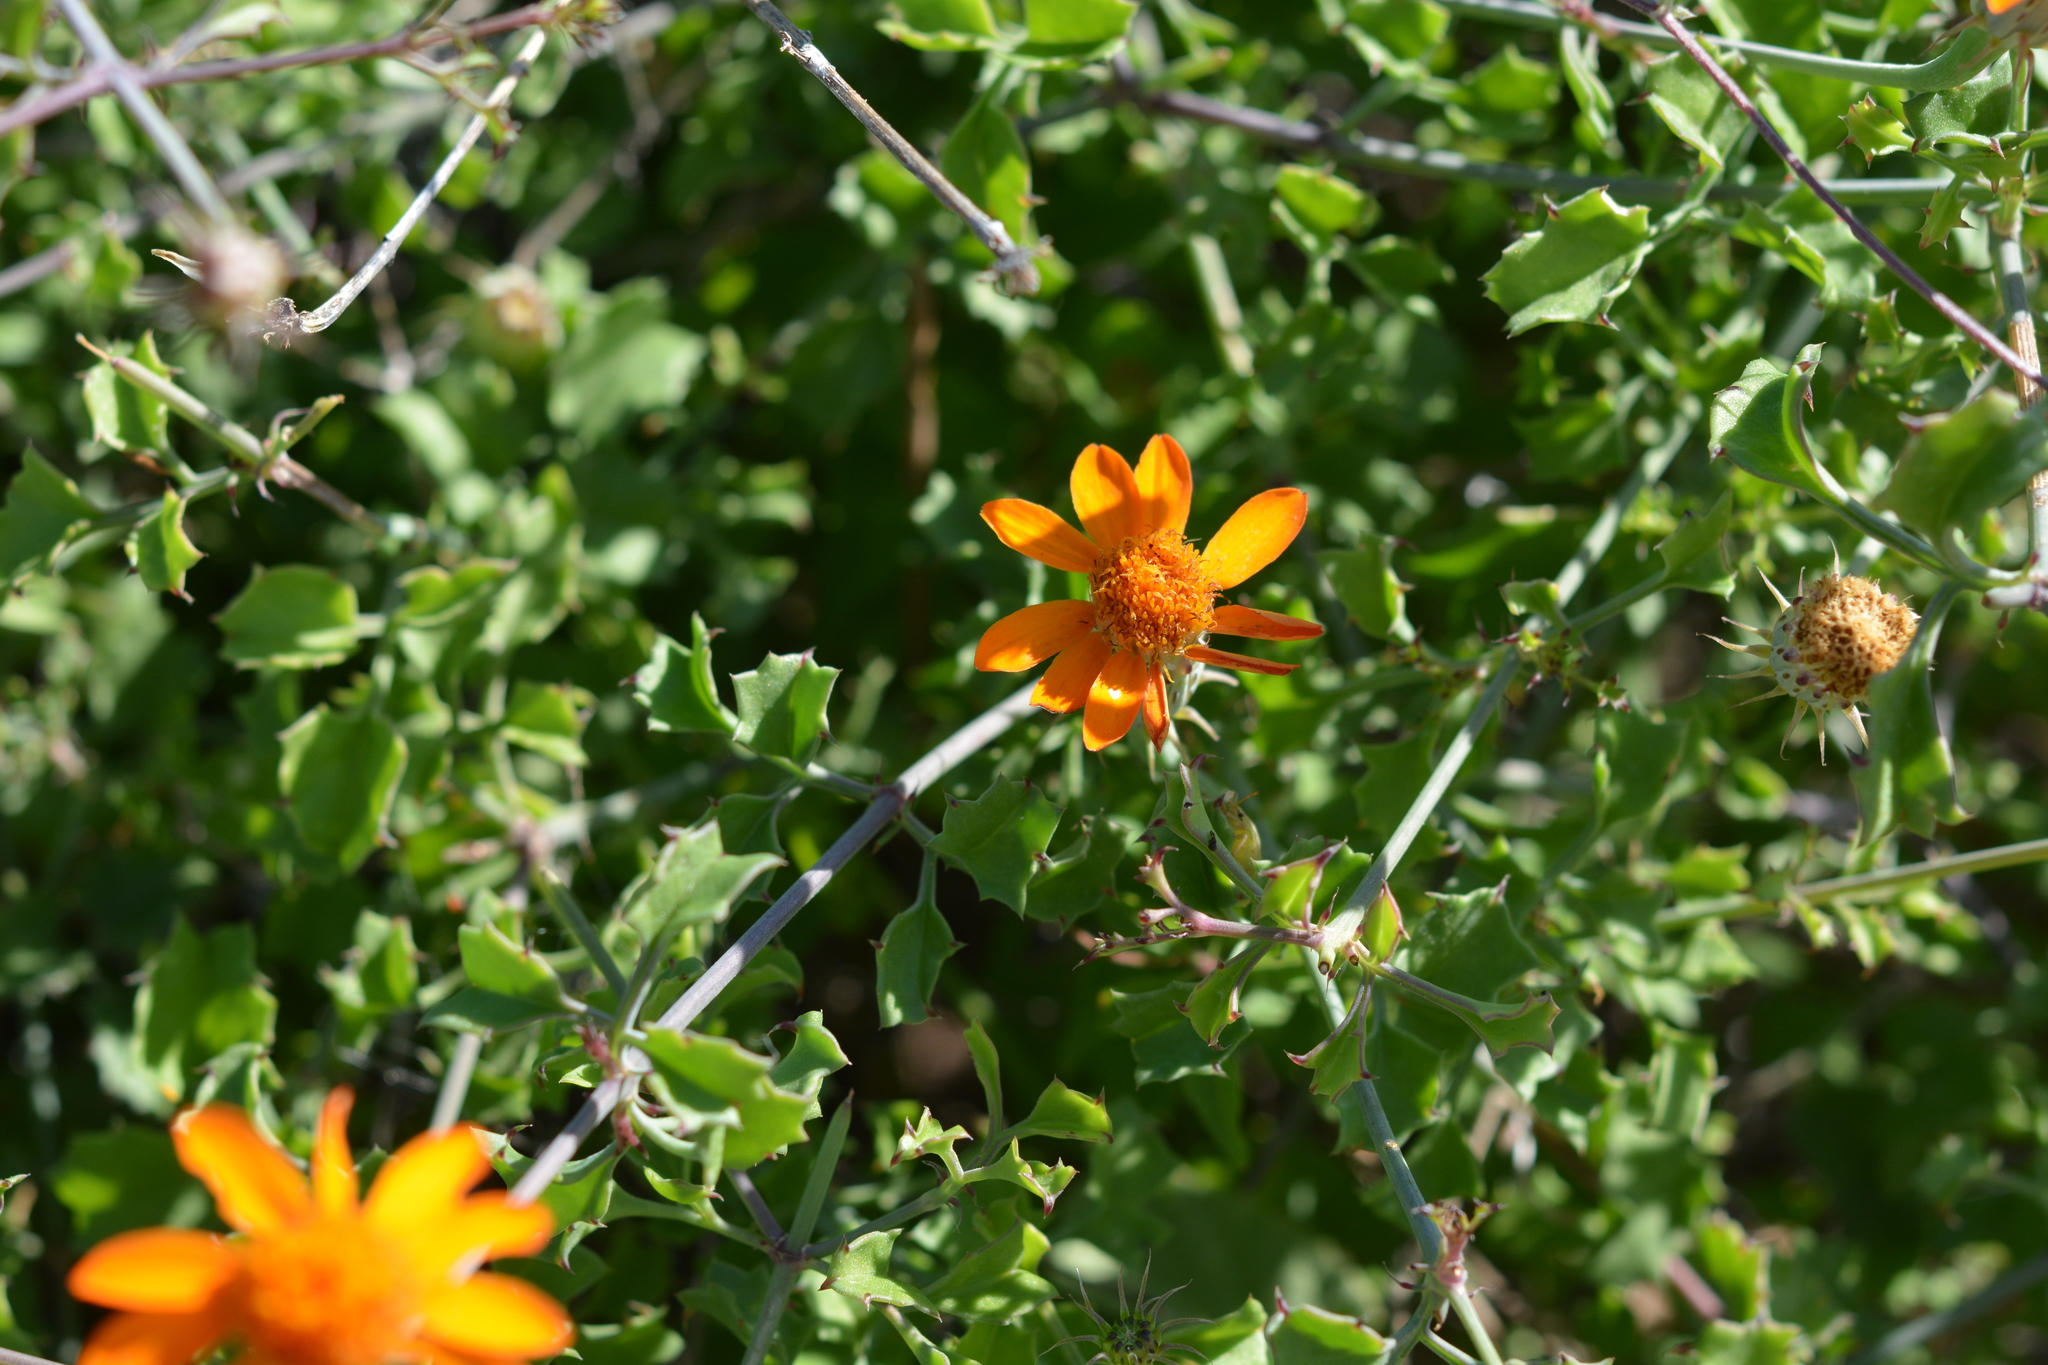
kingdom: Plantae
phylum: Tracheophyta
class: Magnoliopsida
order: Asterales
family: Asteraceae
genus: Adenophyllum
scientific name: Adenophyllum speciosum
